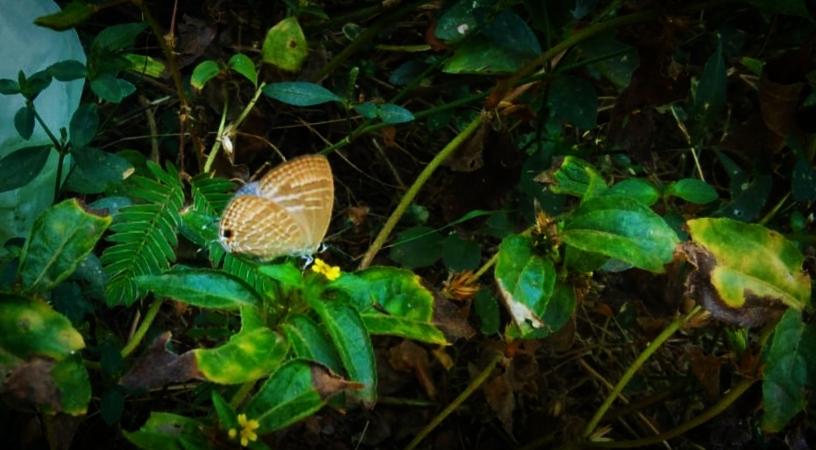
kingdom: Animalia
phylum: Arthropoda
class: Insecta
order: Lepidoptera
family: Lycaenidae
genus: Jamides
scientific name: Jamides celeno
